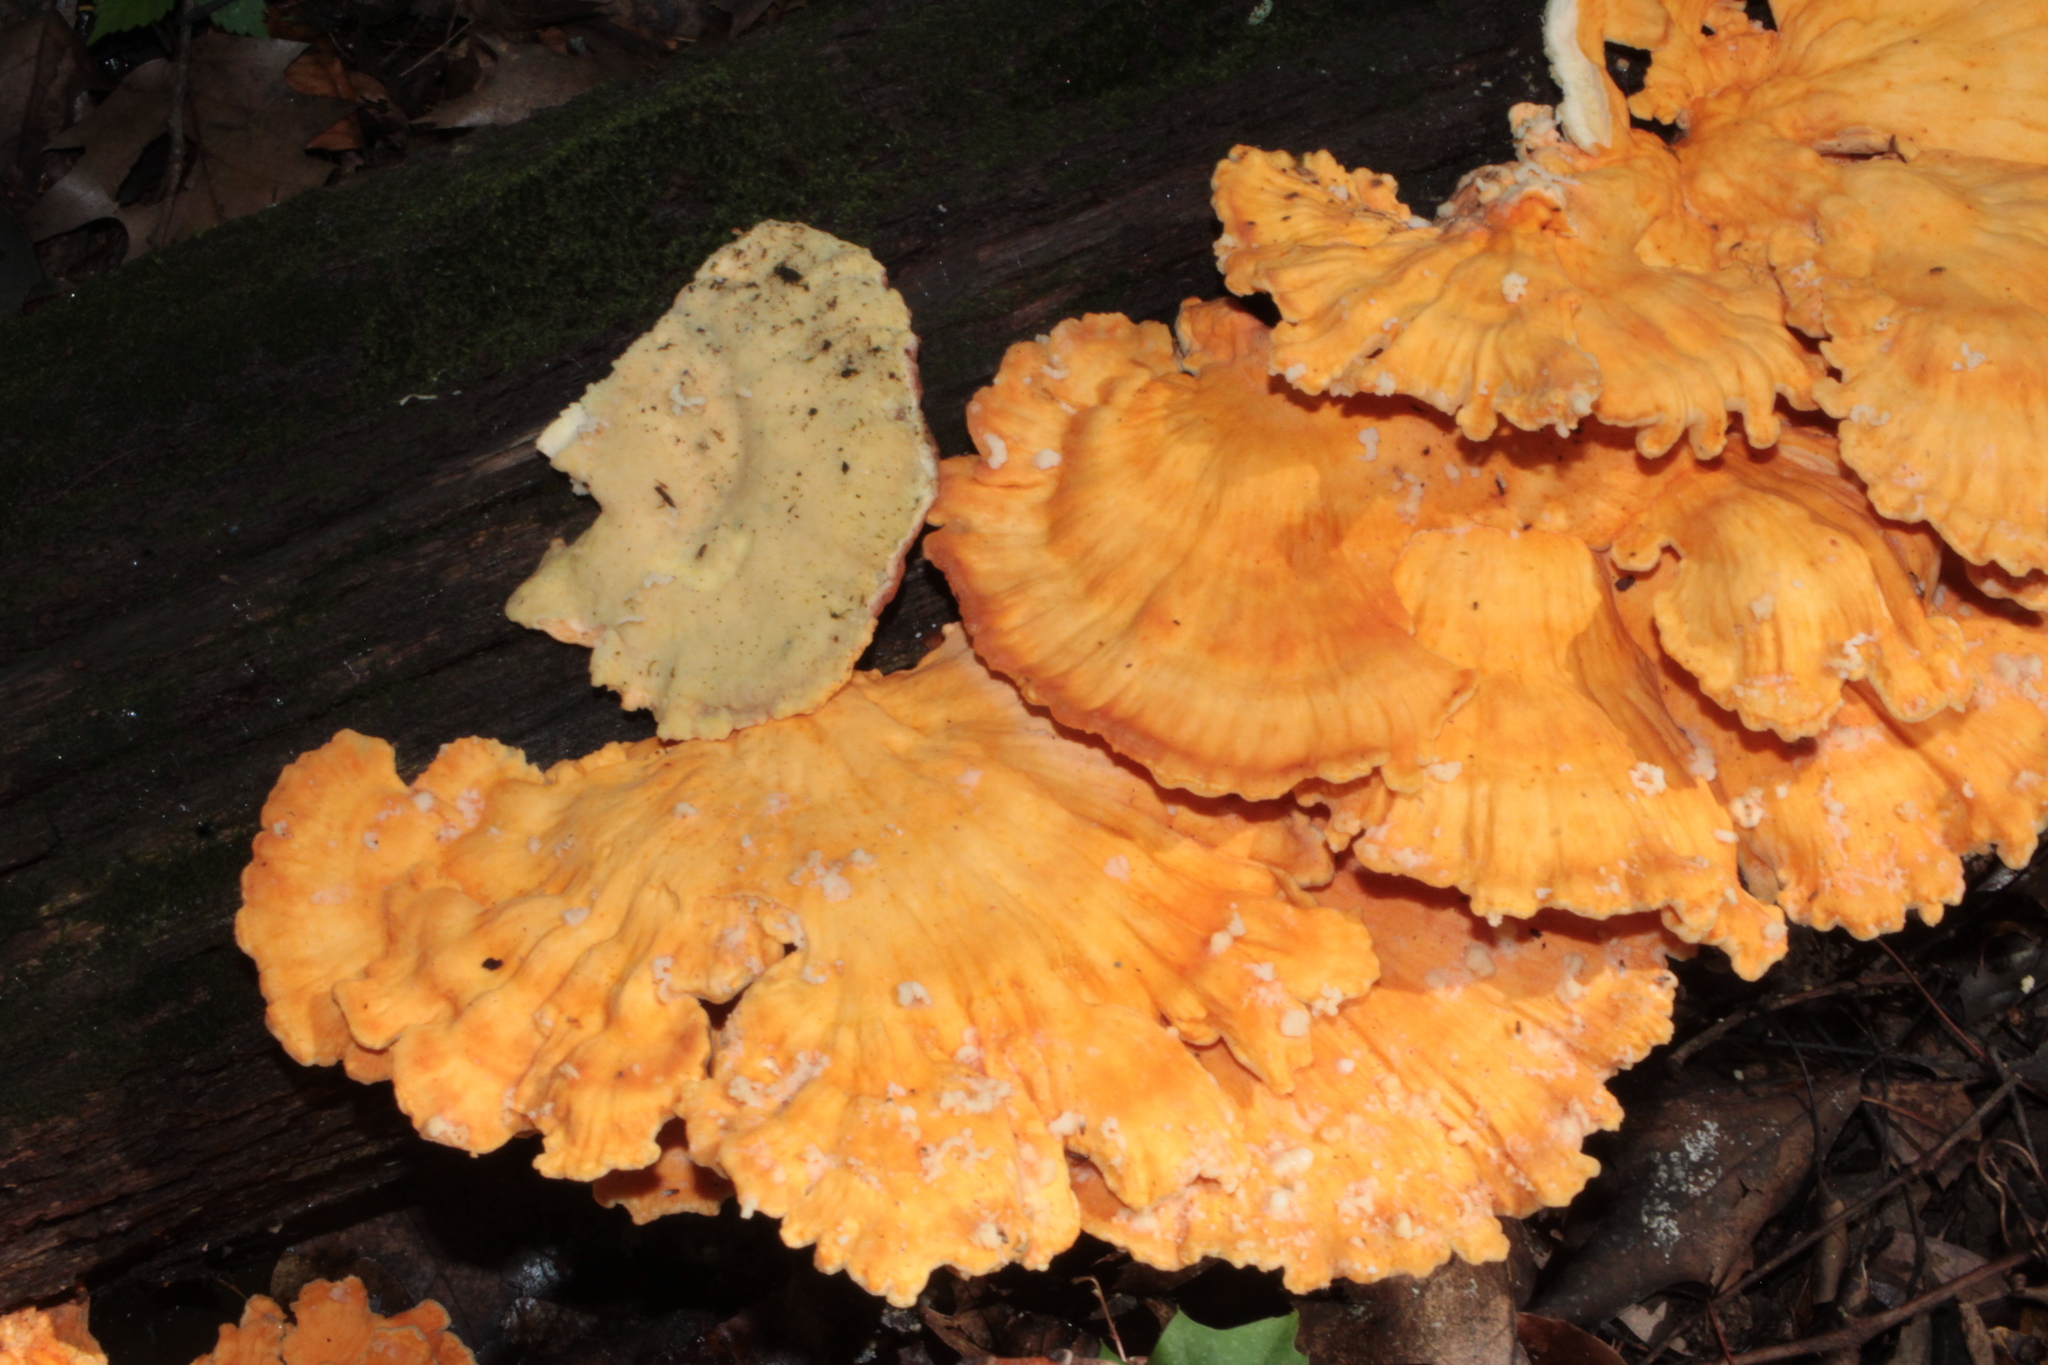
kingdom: Fungi
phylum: Basidiomycota
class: Agaricomycetes
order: Polyporales
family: Laetiporaceae
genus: Laetiporus
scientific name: Laetiporus sulphureus
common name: Chicken of the woods
